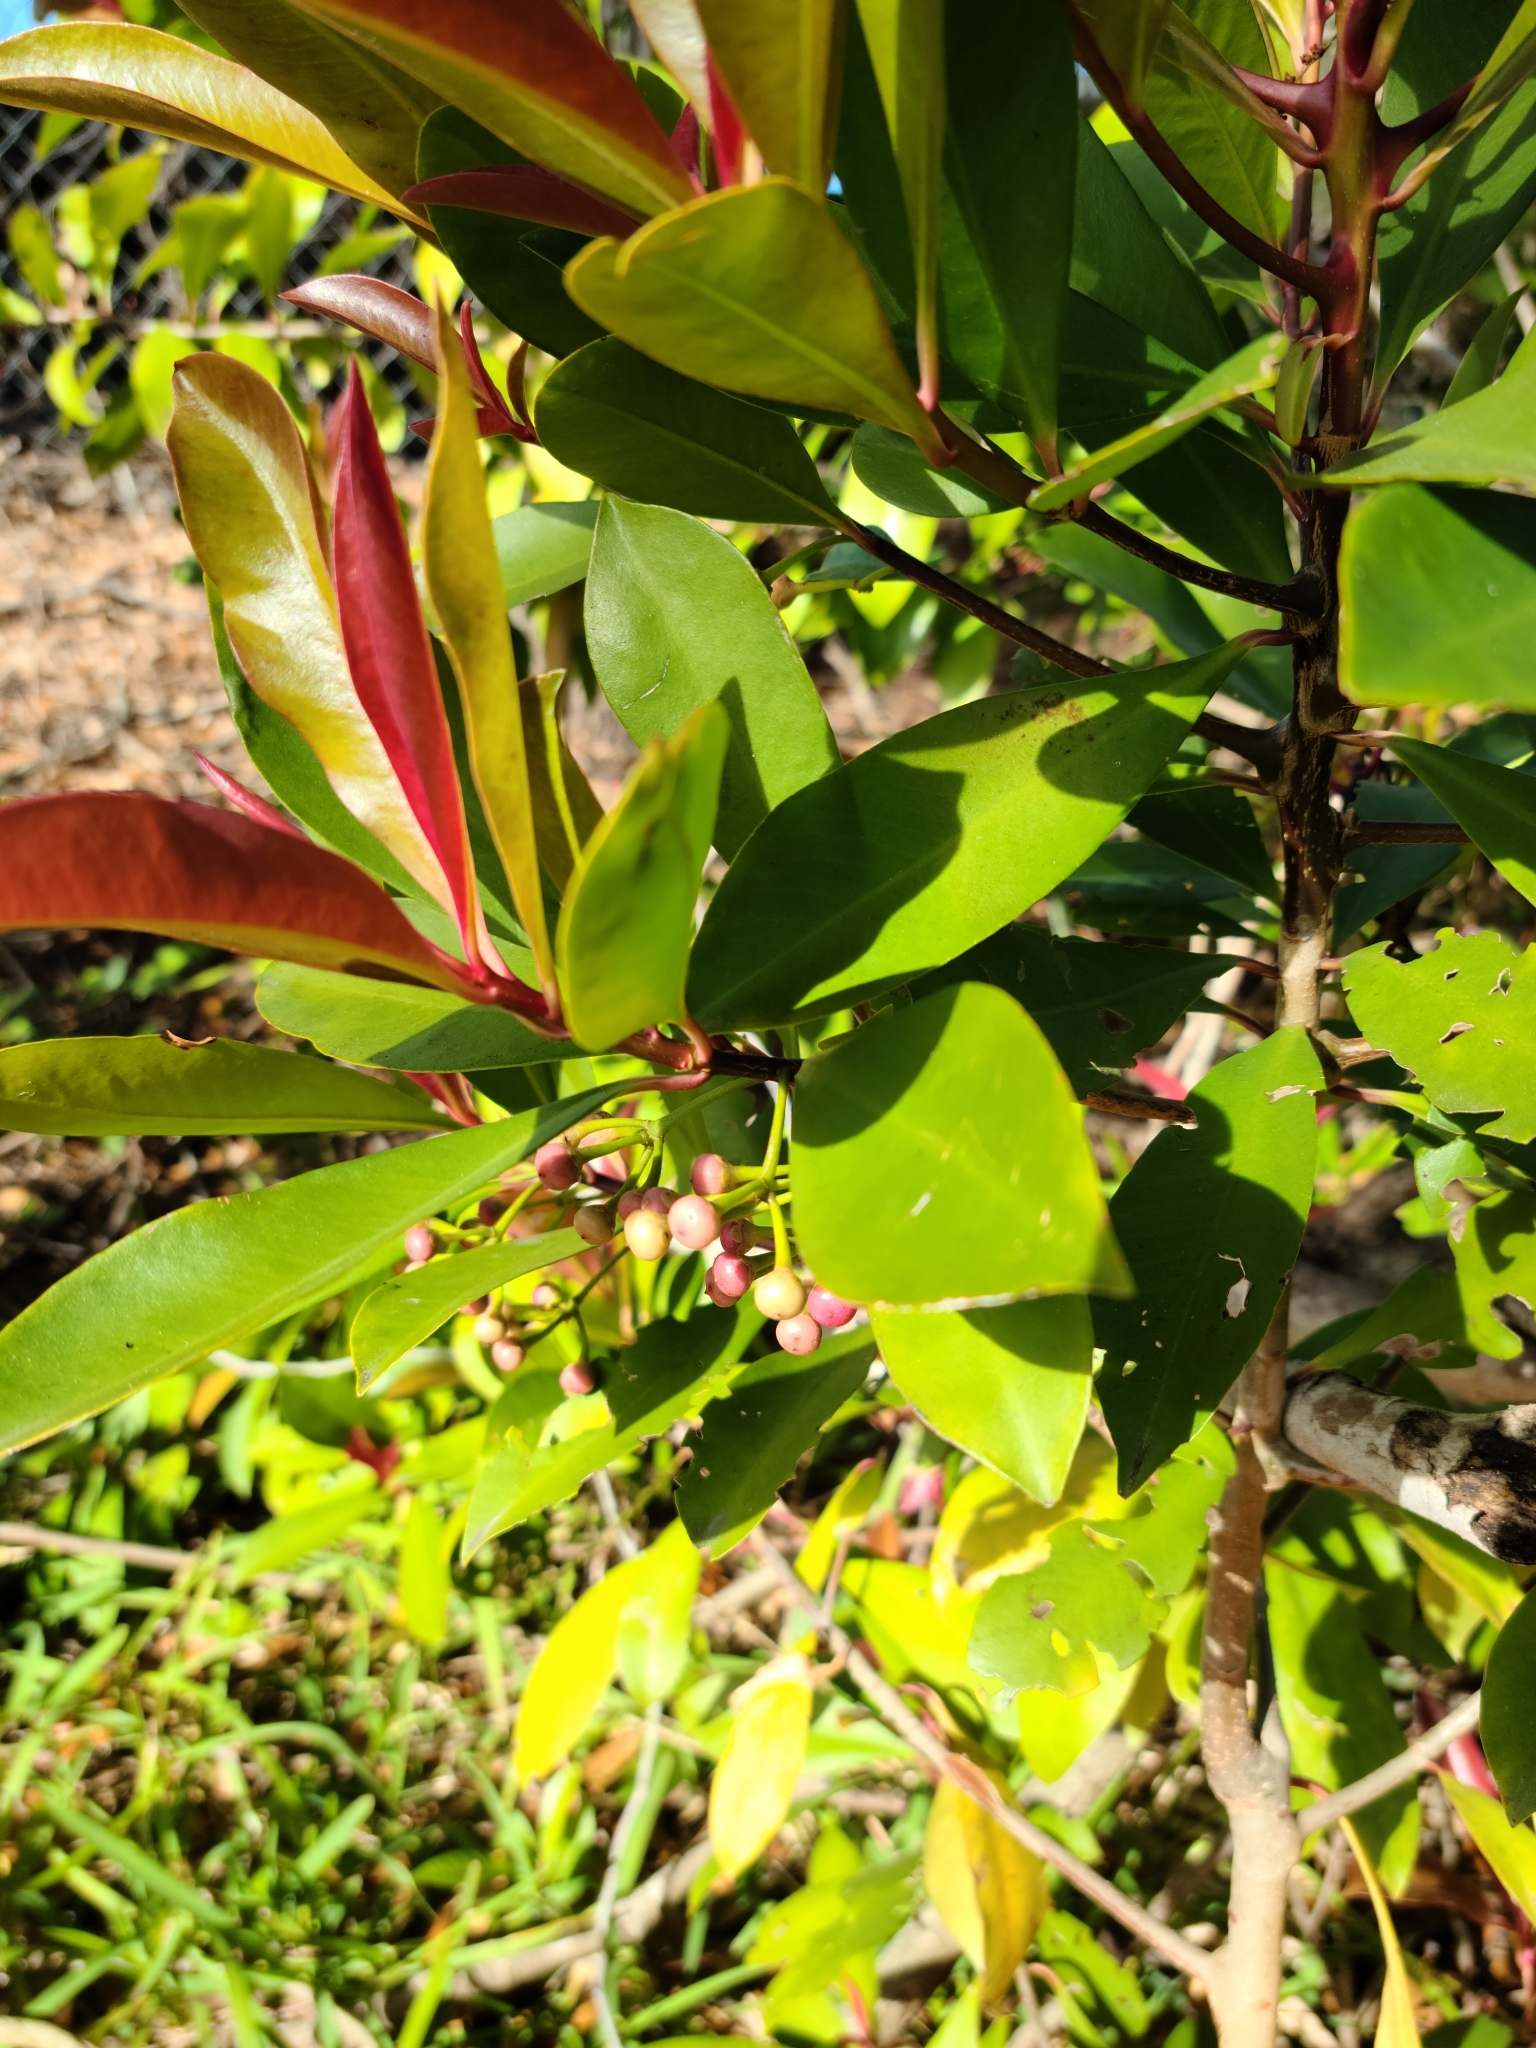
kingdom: Plantae
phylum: Tracheophyta
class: Magnoliopsida
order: Ericales
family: Primulaceae
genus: Ardisia
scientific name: Ardisia elliptica
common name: Shoebutton
